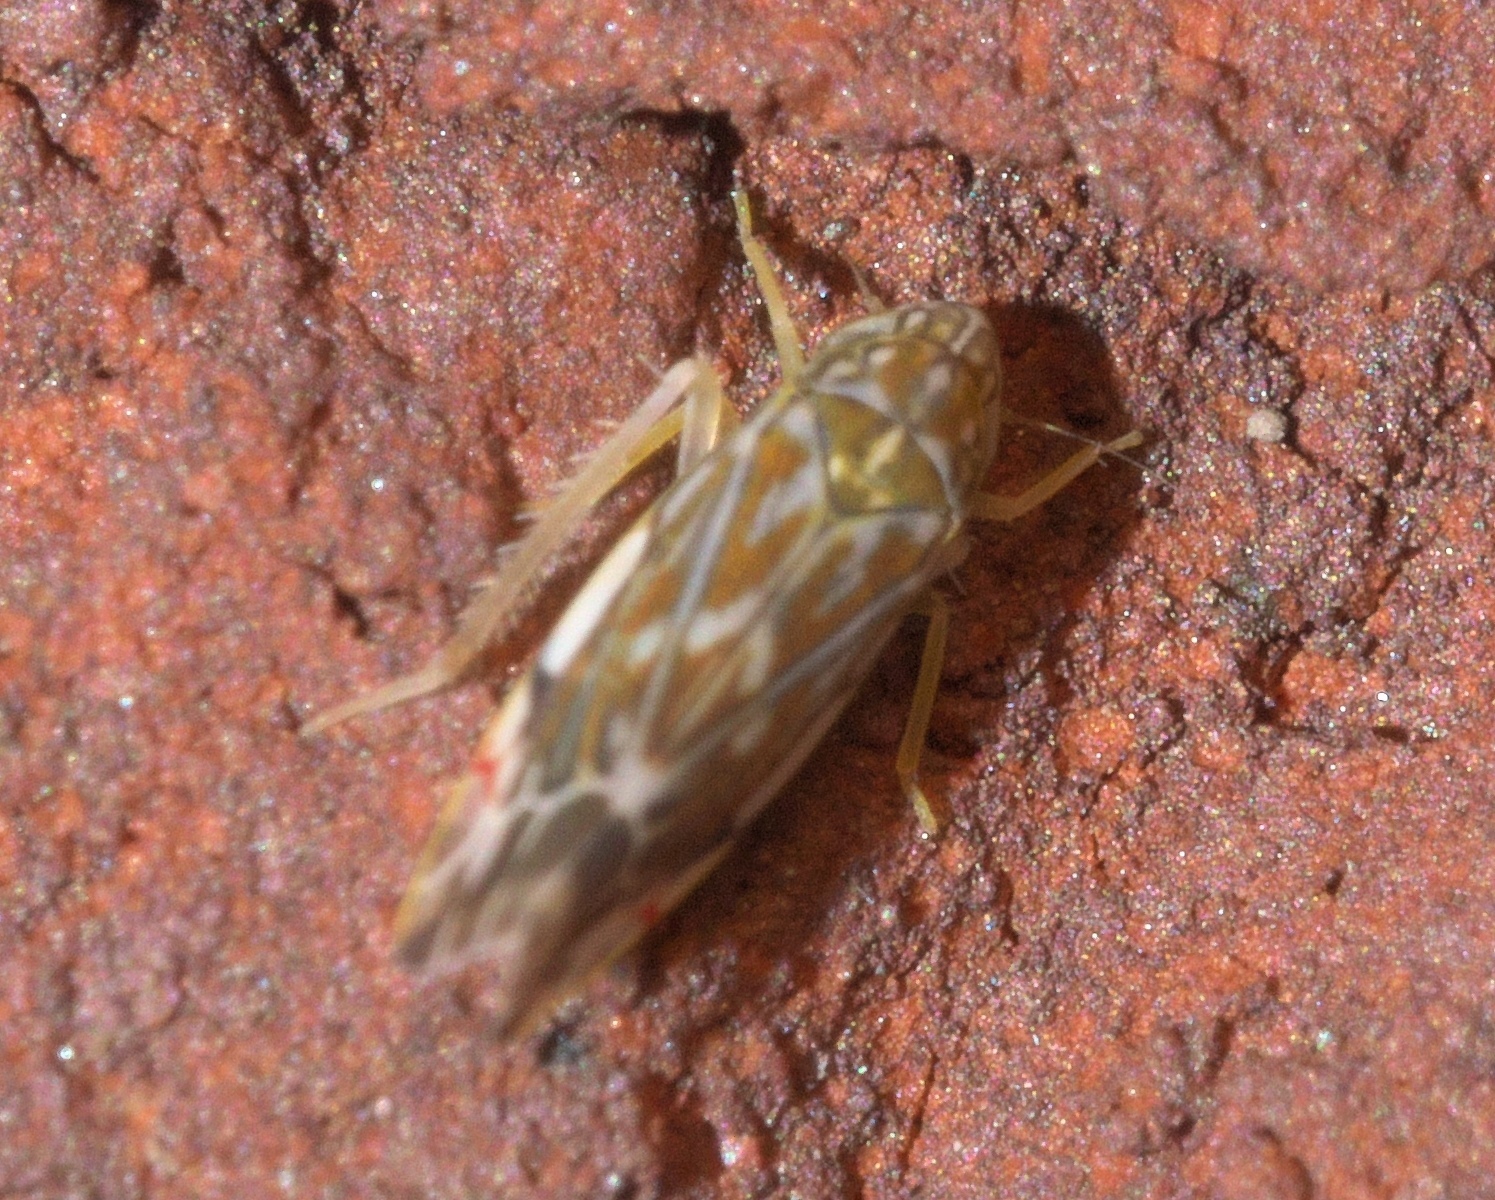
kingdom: Animalia
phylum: Arthropoda
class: Insecta
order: Hemiptera
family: Cicadellidae
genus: Erasmoneura
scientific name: Erasmoneura vulnerata
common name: The wounded leafhopper
